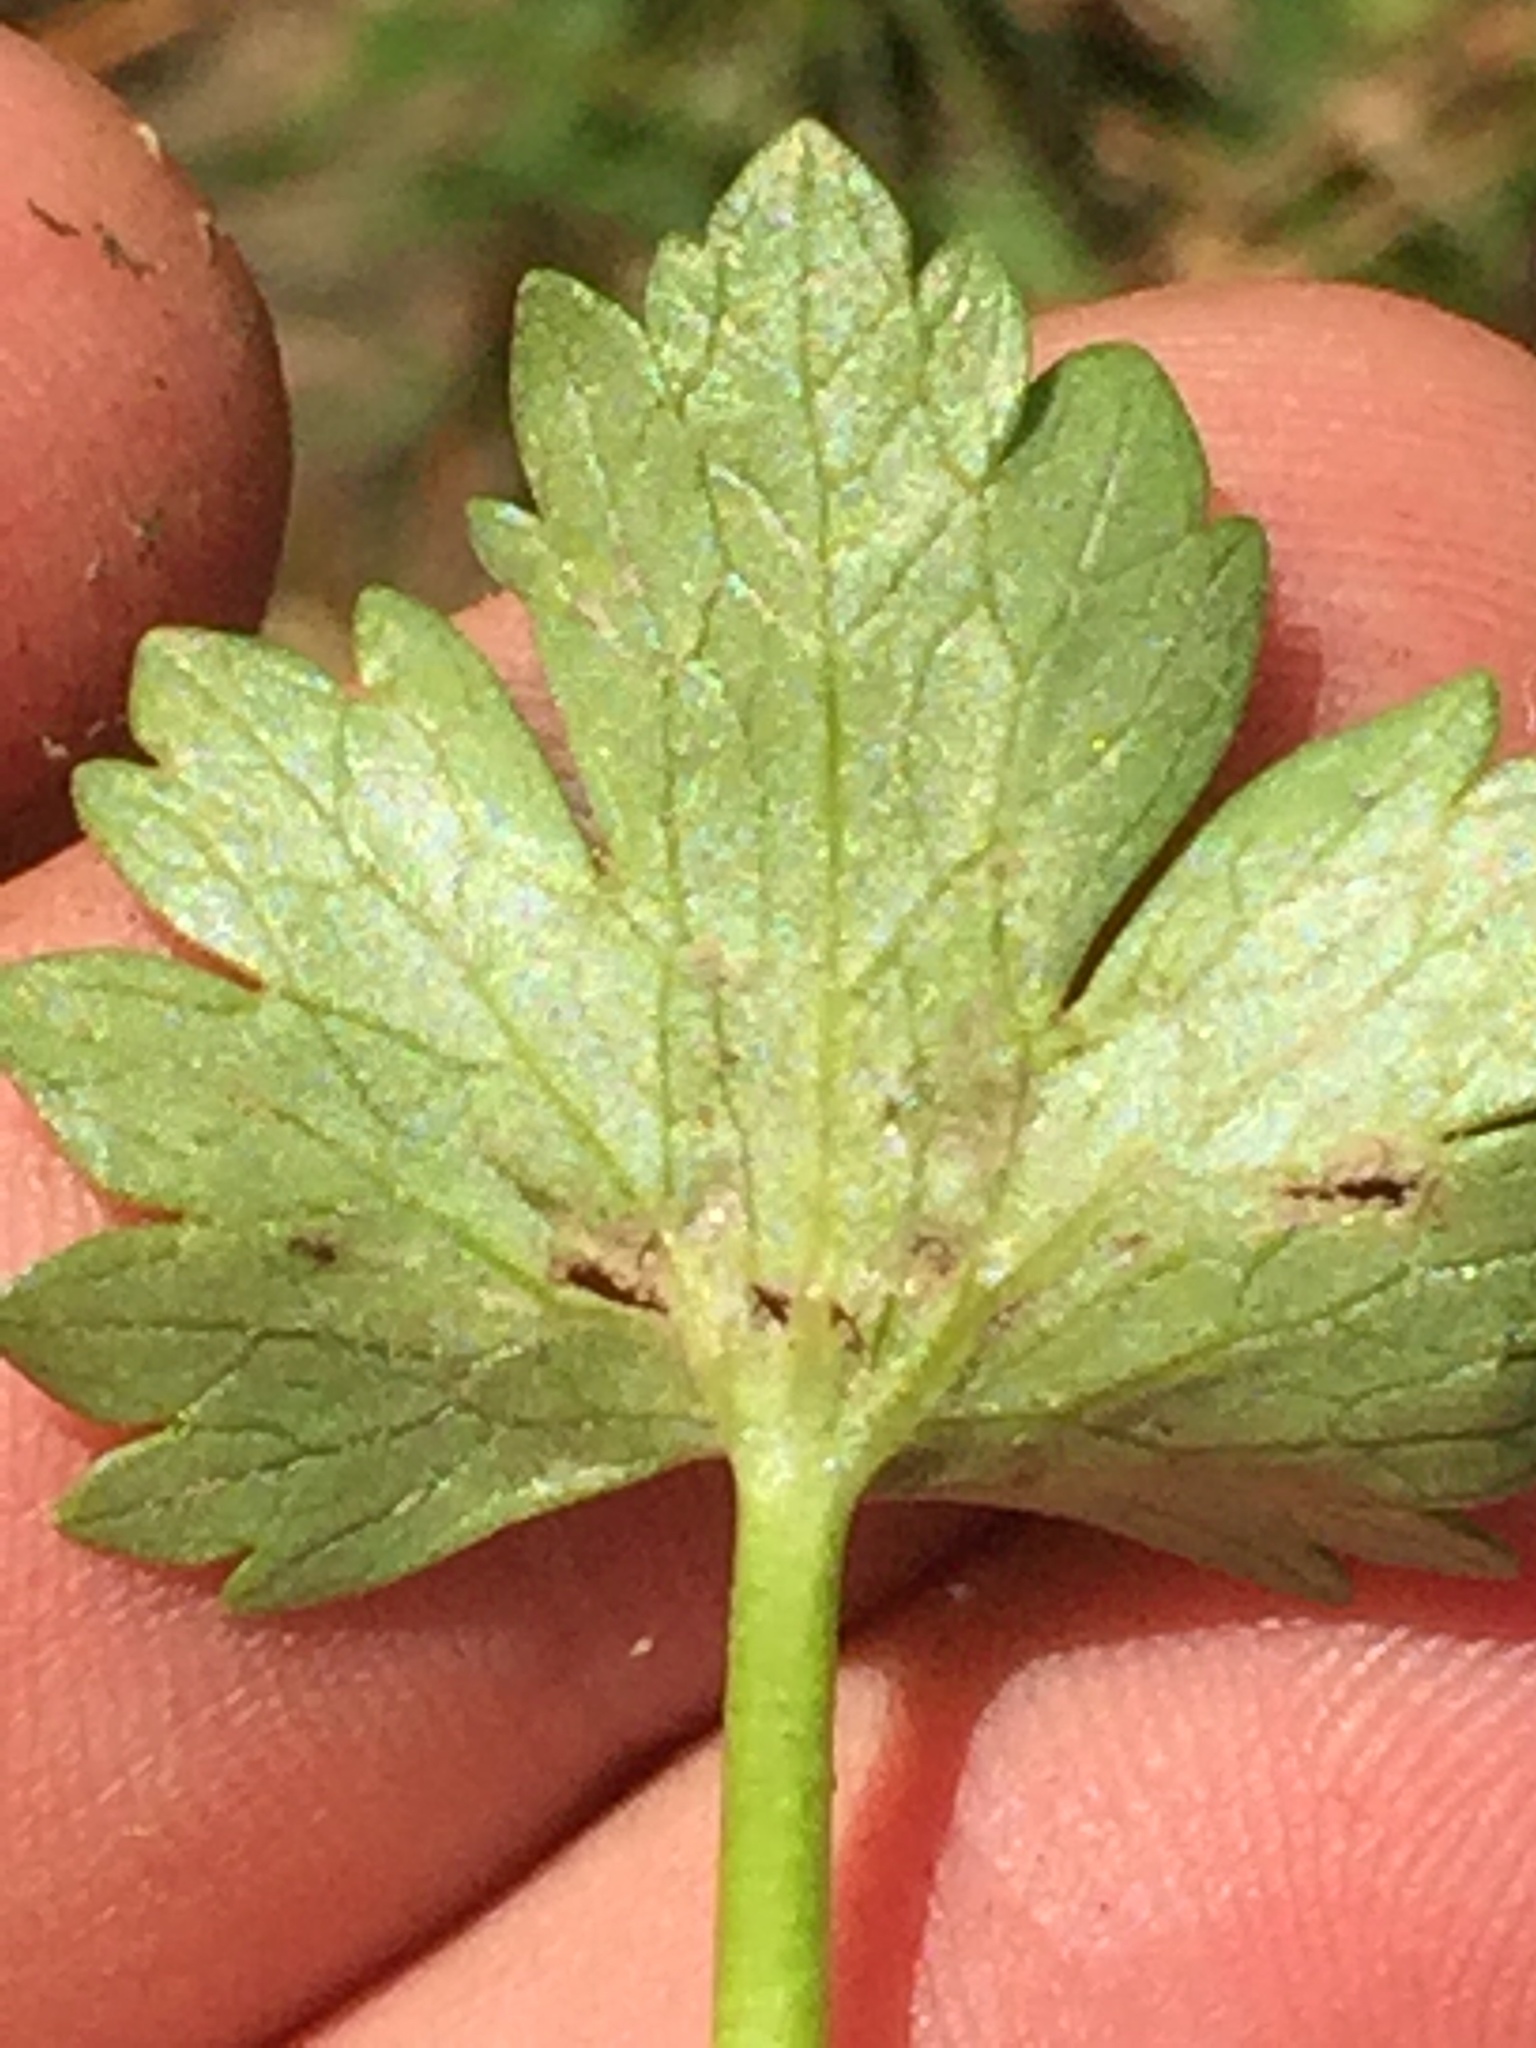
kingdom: Plantae
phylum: Tracheophyta
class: Magnoliopsida
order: Ranunculales
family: Ranunculaceae
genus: Ranunculus
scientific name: Ranunculus sardous
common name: Hairy buttercup
